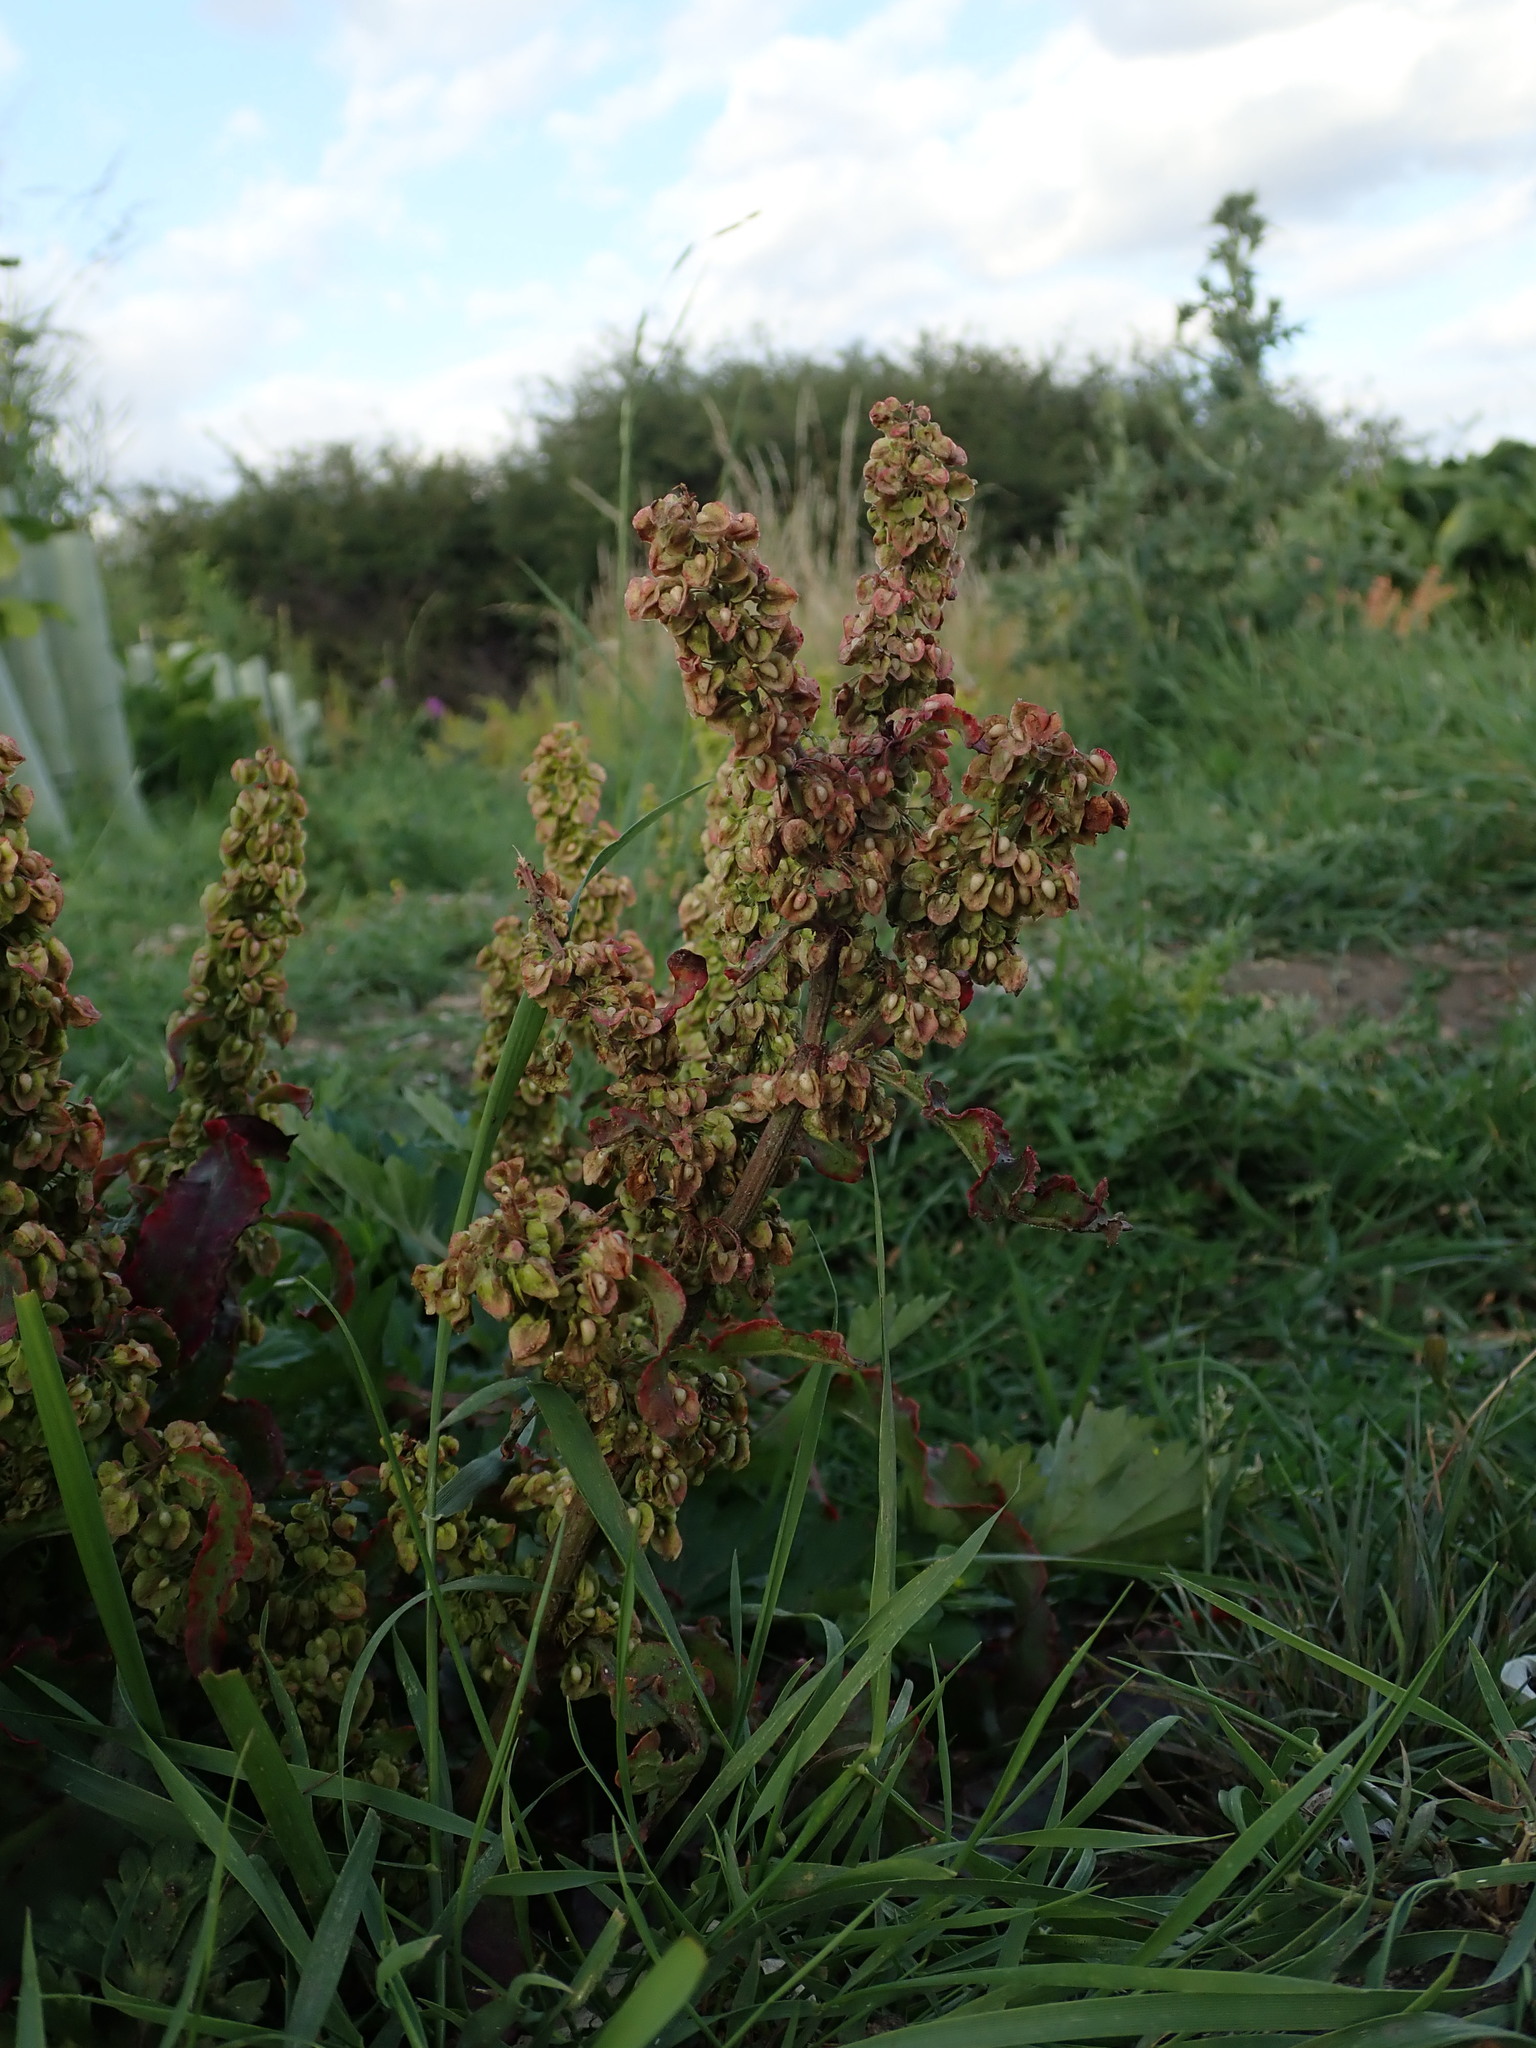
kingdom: Plantae
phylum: Tracheophyta
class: Magnoliopsida
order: Caryophyllales
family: Polygonaceae
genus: Rumex
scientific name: Rumex crispus
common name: Curled dock
